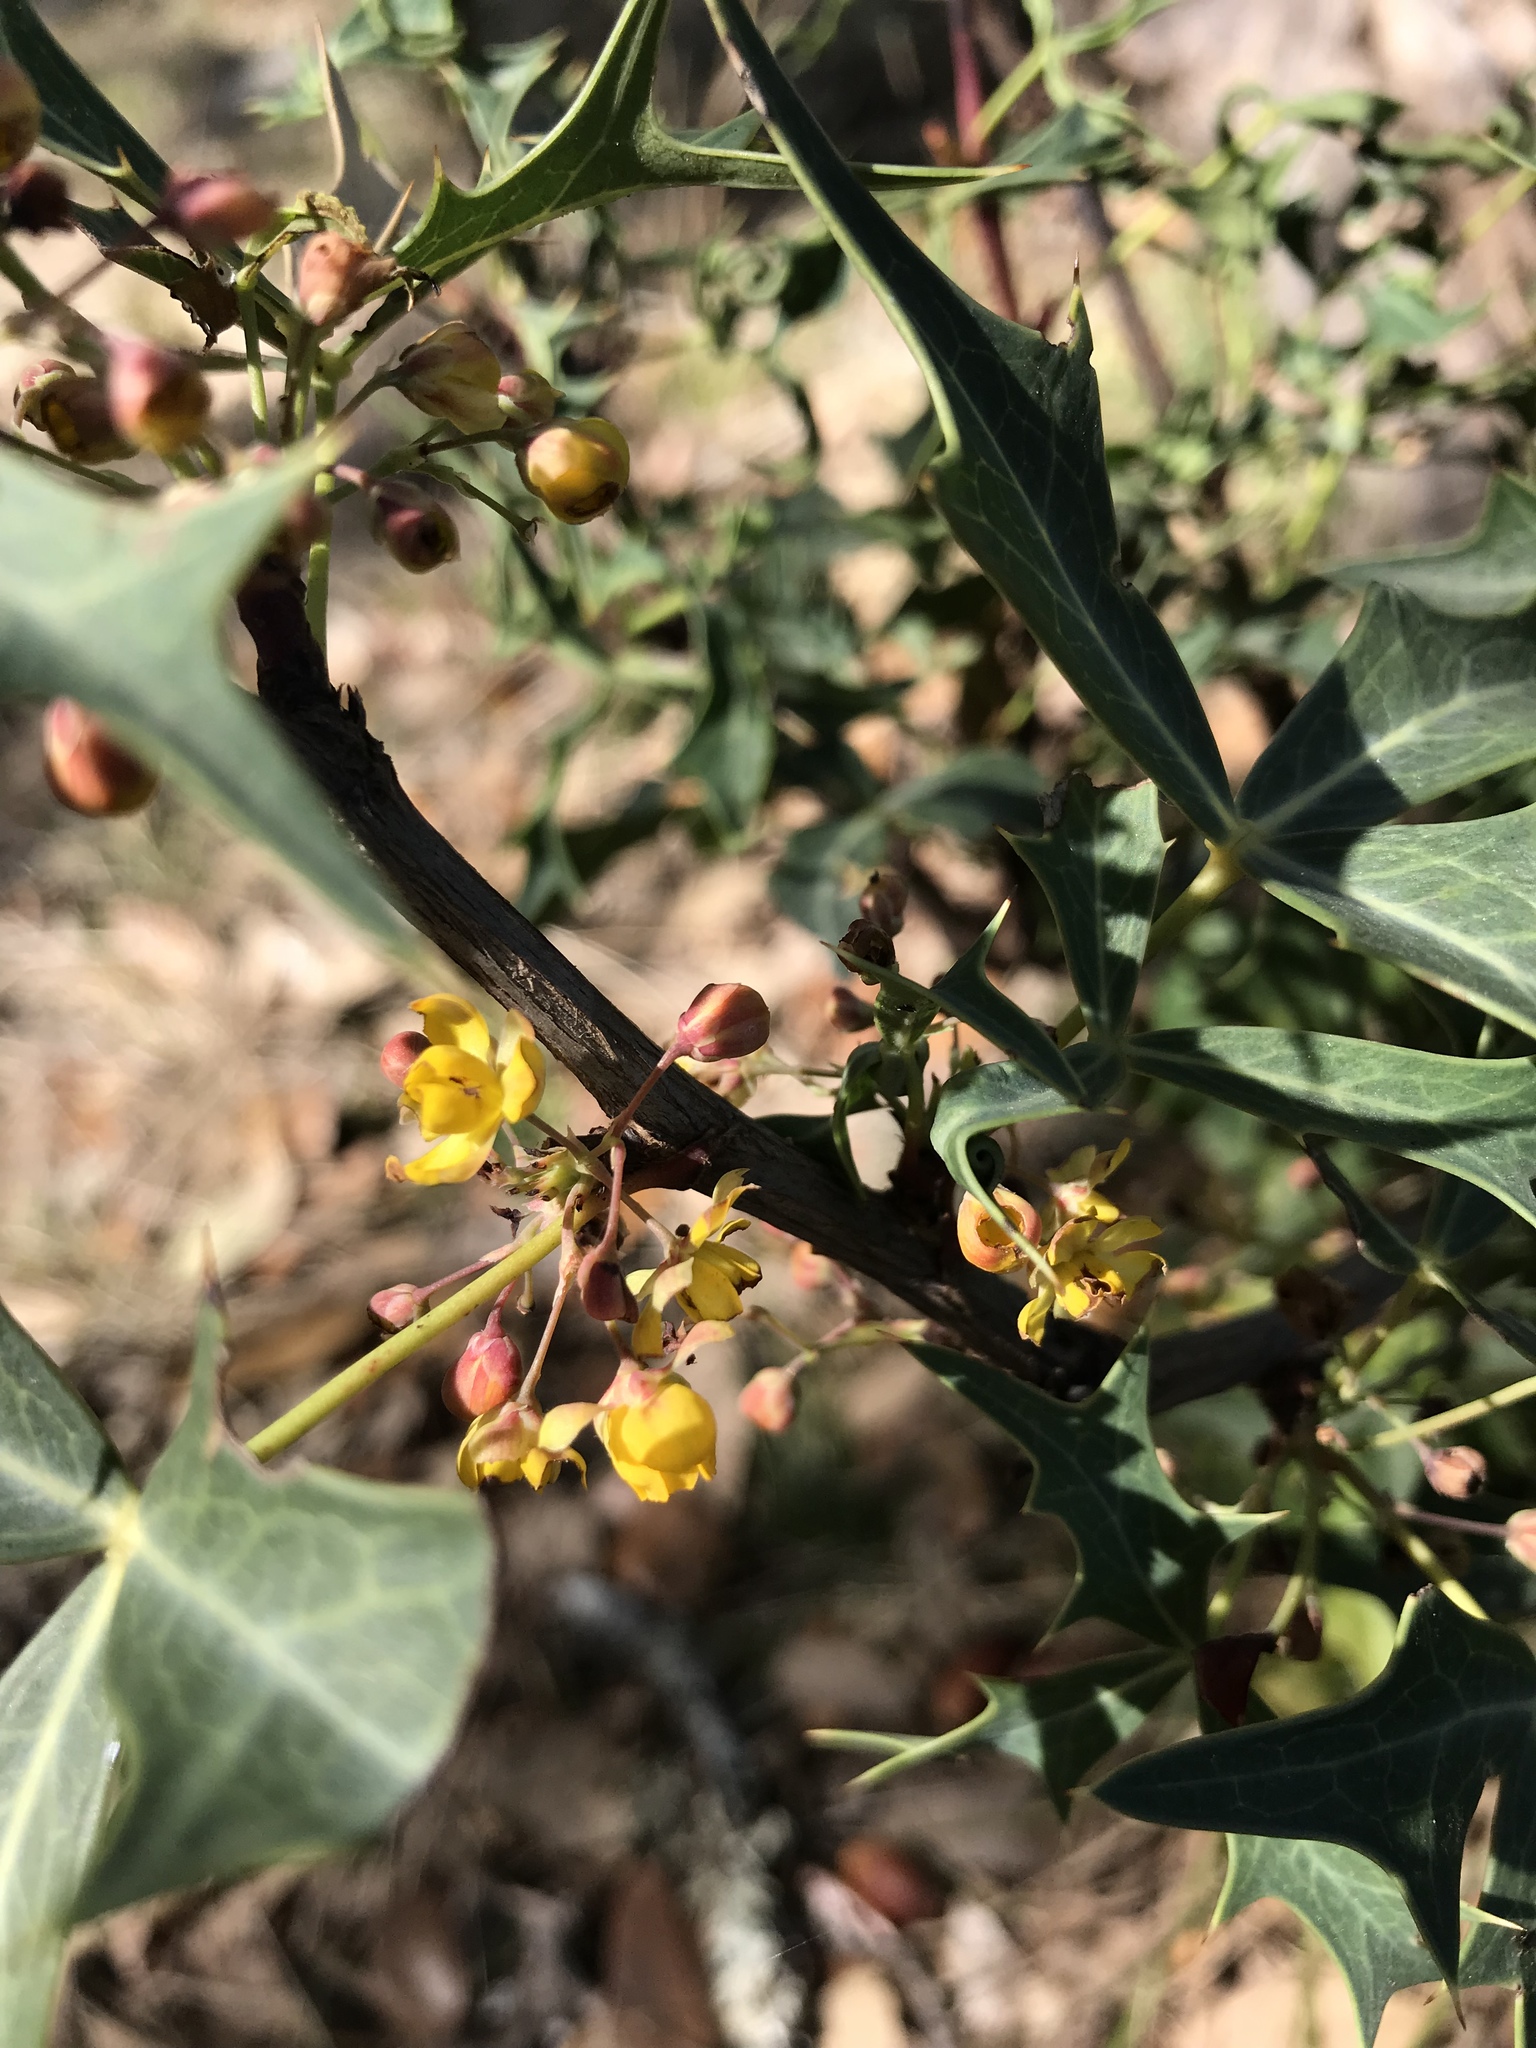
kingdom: Plantae
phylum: Tracheophyta
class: Magnoliopsida
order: Ranunculales
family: Berberidaceae
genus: Alloberberis
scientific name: Alloberberis trifoliolata
